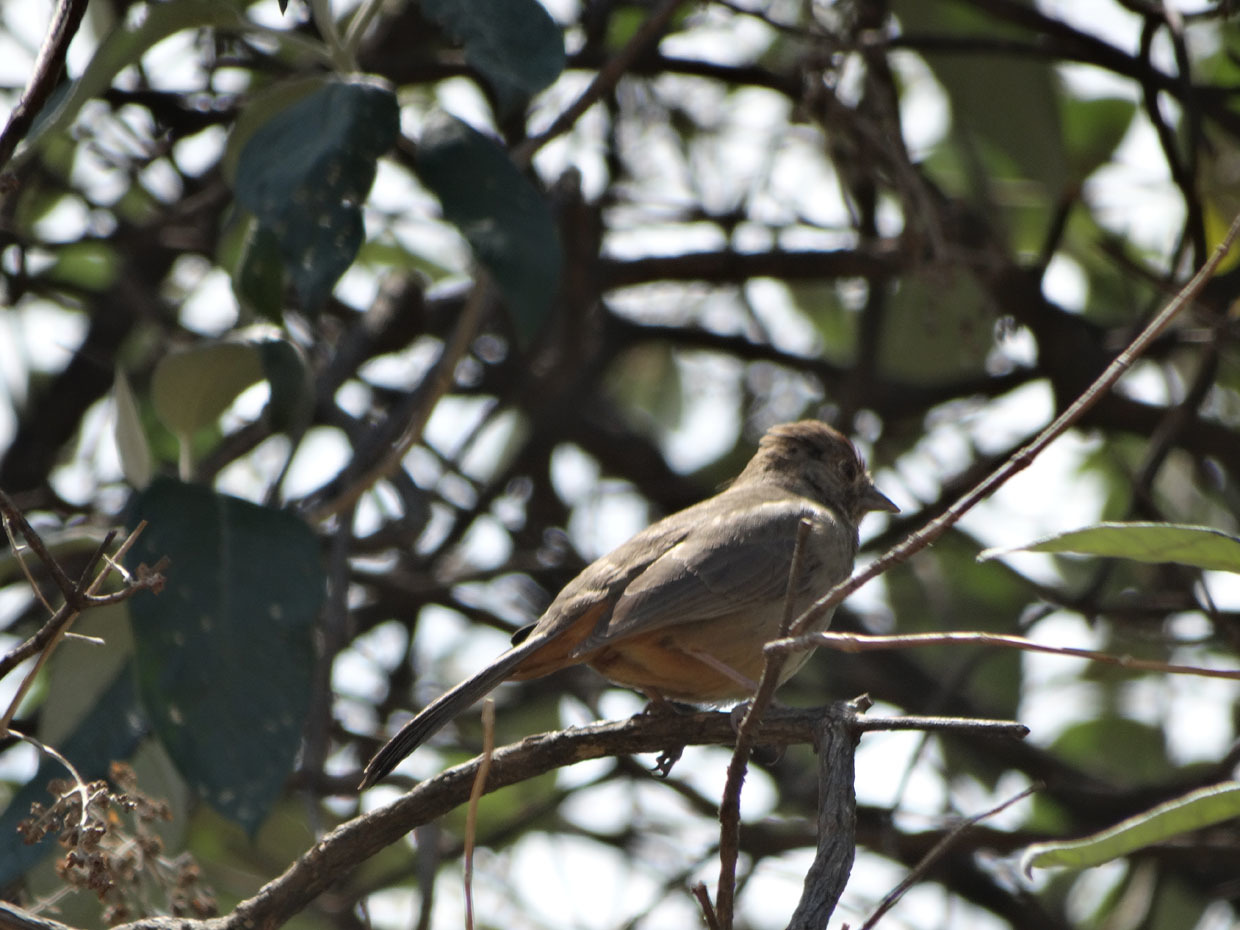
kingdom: Animalia
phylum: Chordata
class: Aves
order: Passeriformes
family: Passerellidae
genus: Melozone
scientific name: Melozone fusca
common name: Canyon towhee
